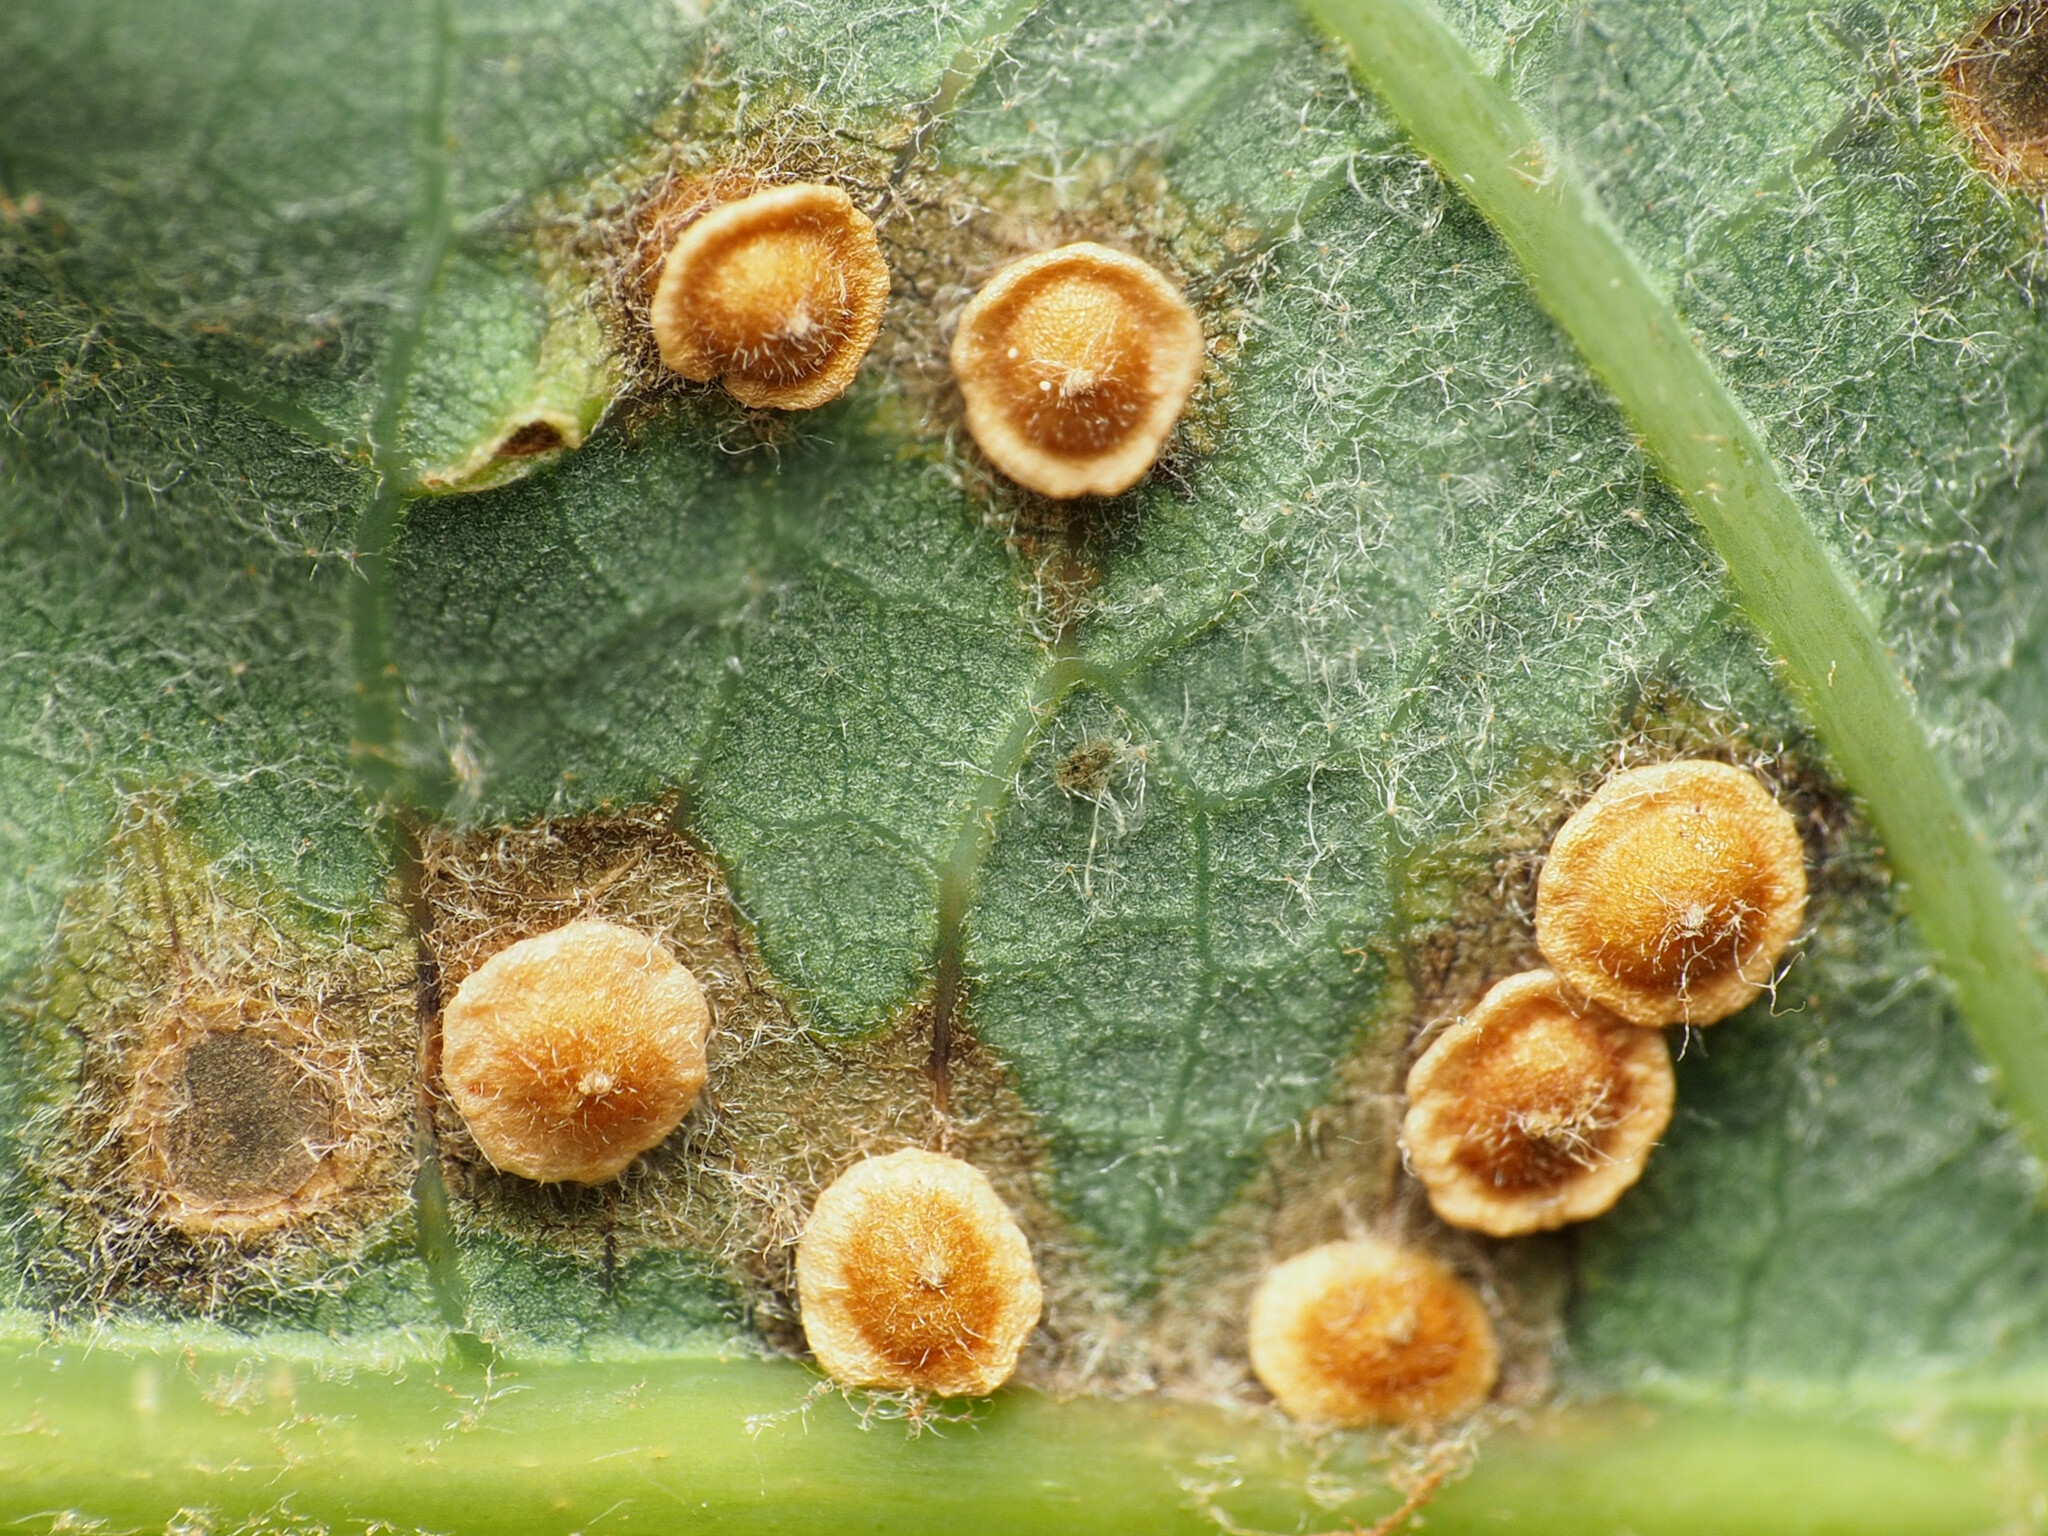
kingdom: Animalia
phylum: Arthropoda
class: Insecta
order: Hymenoptera
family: Cynipidae
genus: Neuroterus
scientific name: Neuroterus
